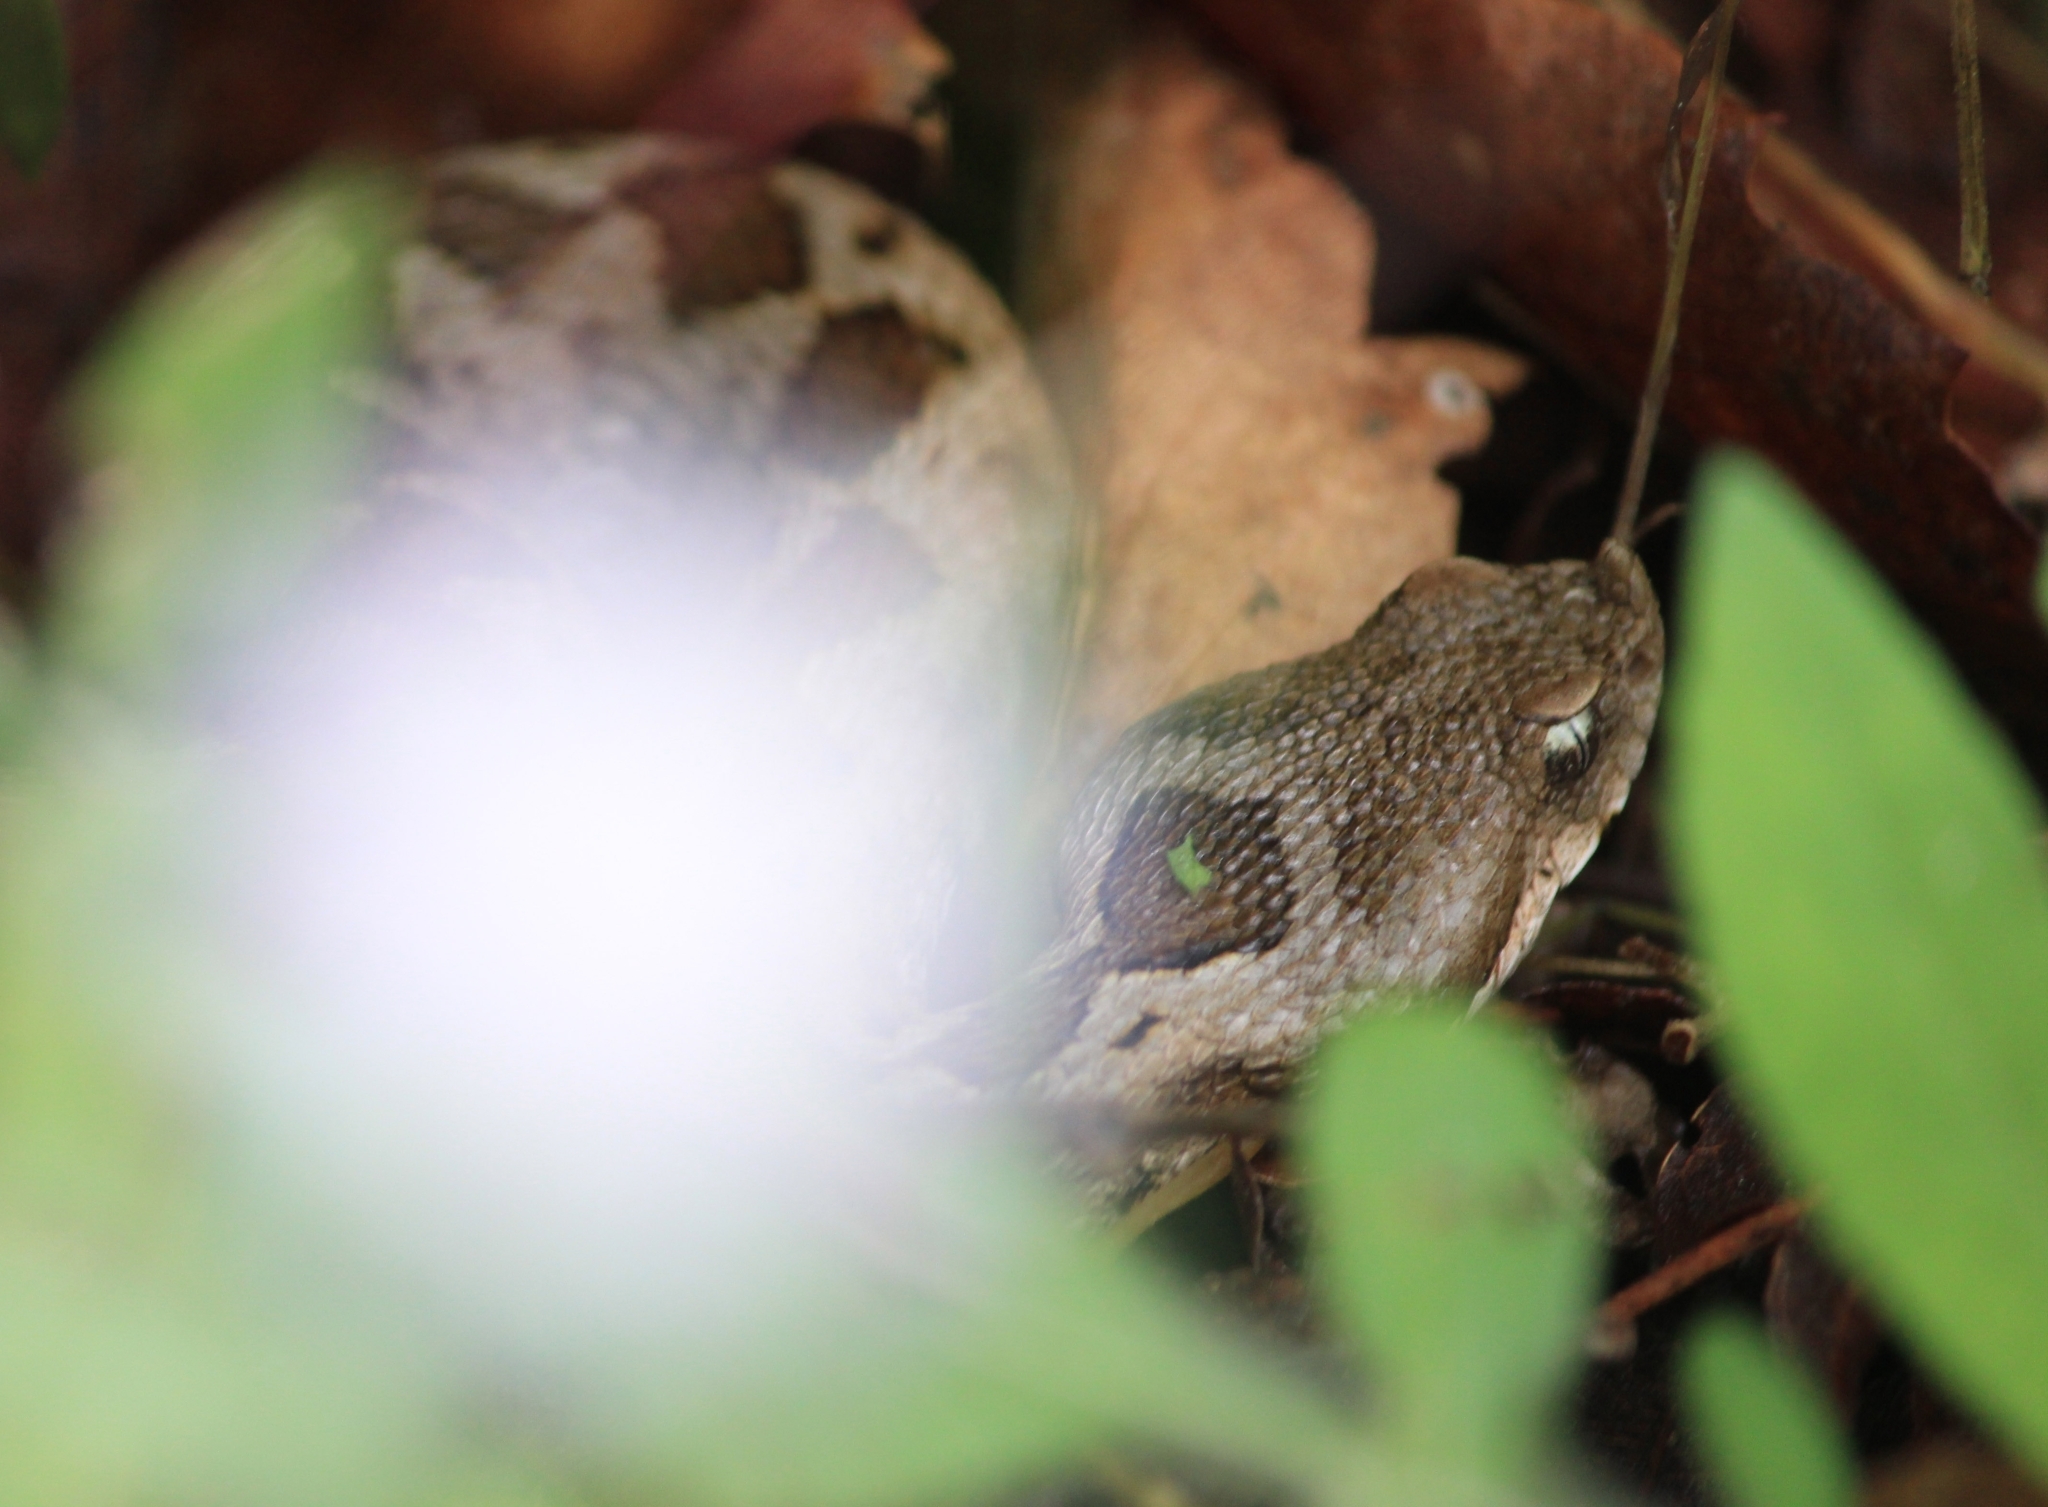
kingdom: Animalia
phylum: Chordata
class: Squamata
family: Viperidae
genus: Vipera
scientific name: Vipera ammodytes
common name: Sand viper
